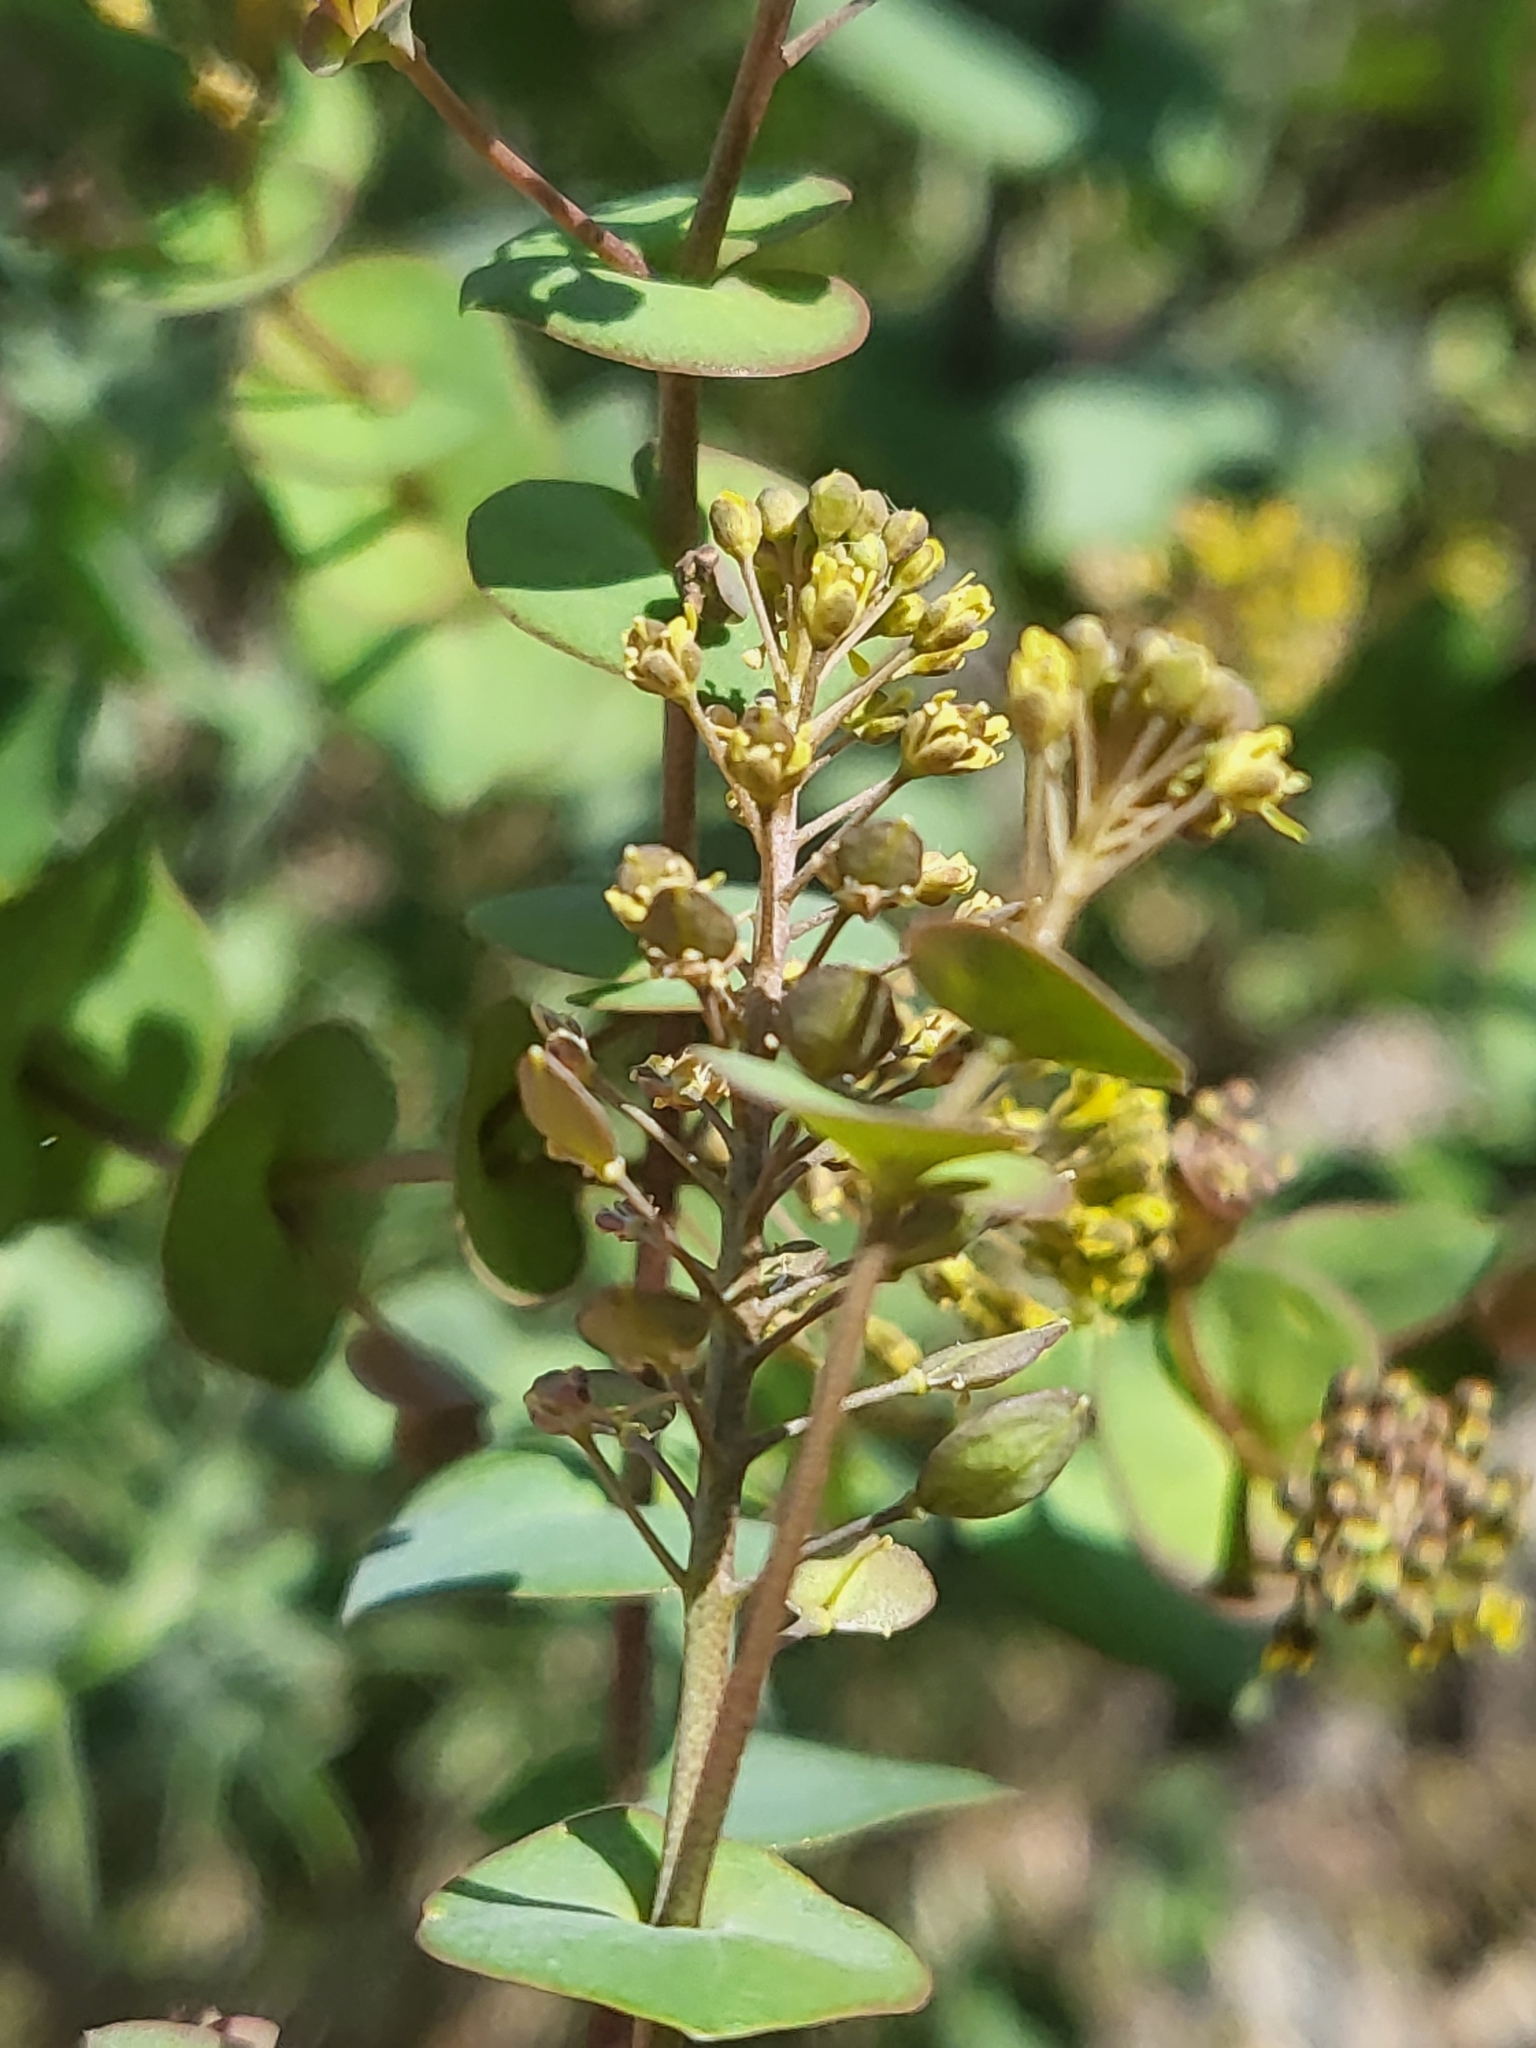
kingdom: Plantae
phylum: Tracheophyta
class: Magnoliopsida
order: Brassicales
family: Brassicaceae
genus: Lepidium
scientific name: Lepidium perfoliatum
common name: Perfoliate pepperwort
